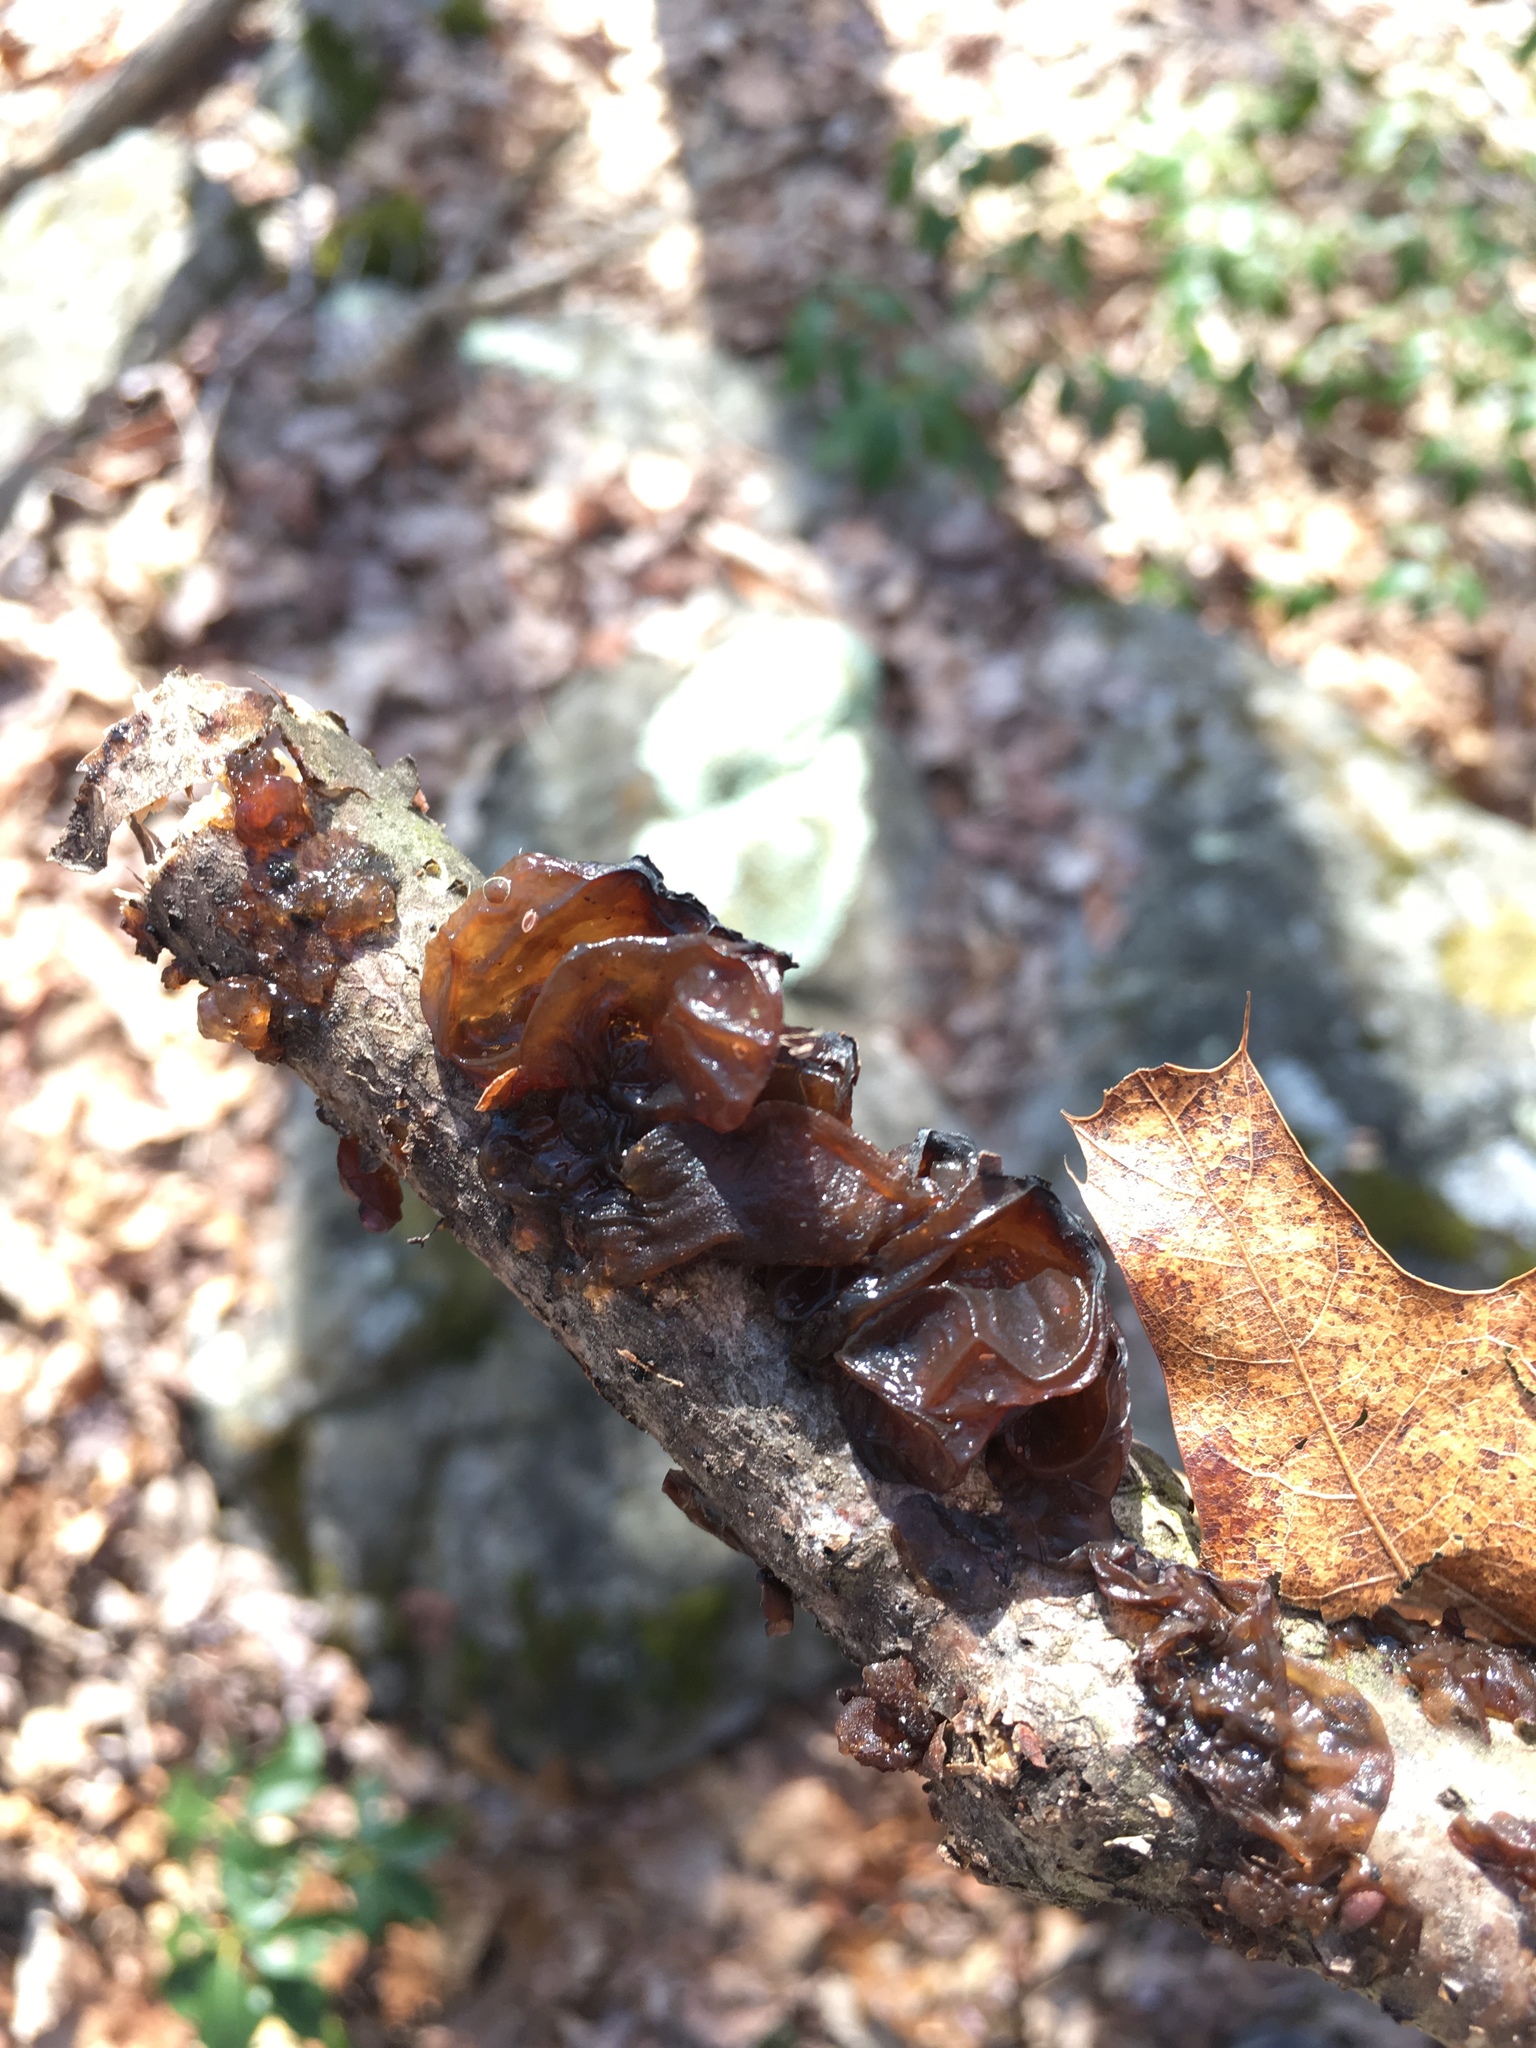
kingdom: Fungi
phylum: Basidiomycota
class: Agaricomycetes
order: Auriculariales
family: Auriculariaceae
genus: Exidia
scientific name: Exidia
